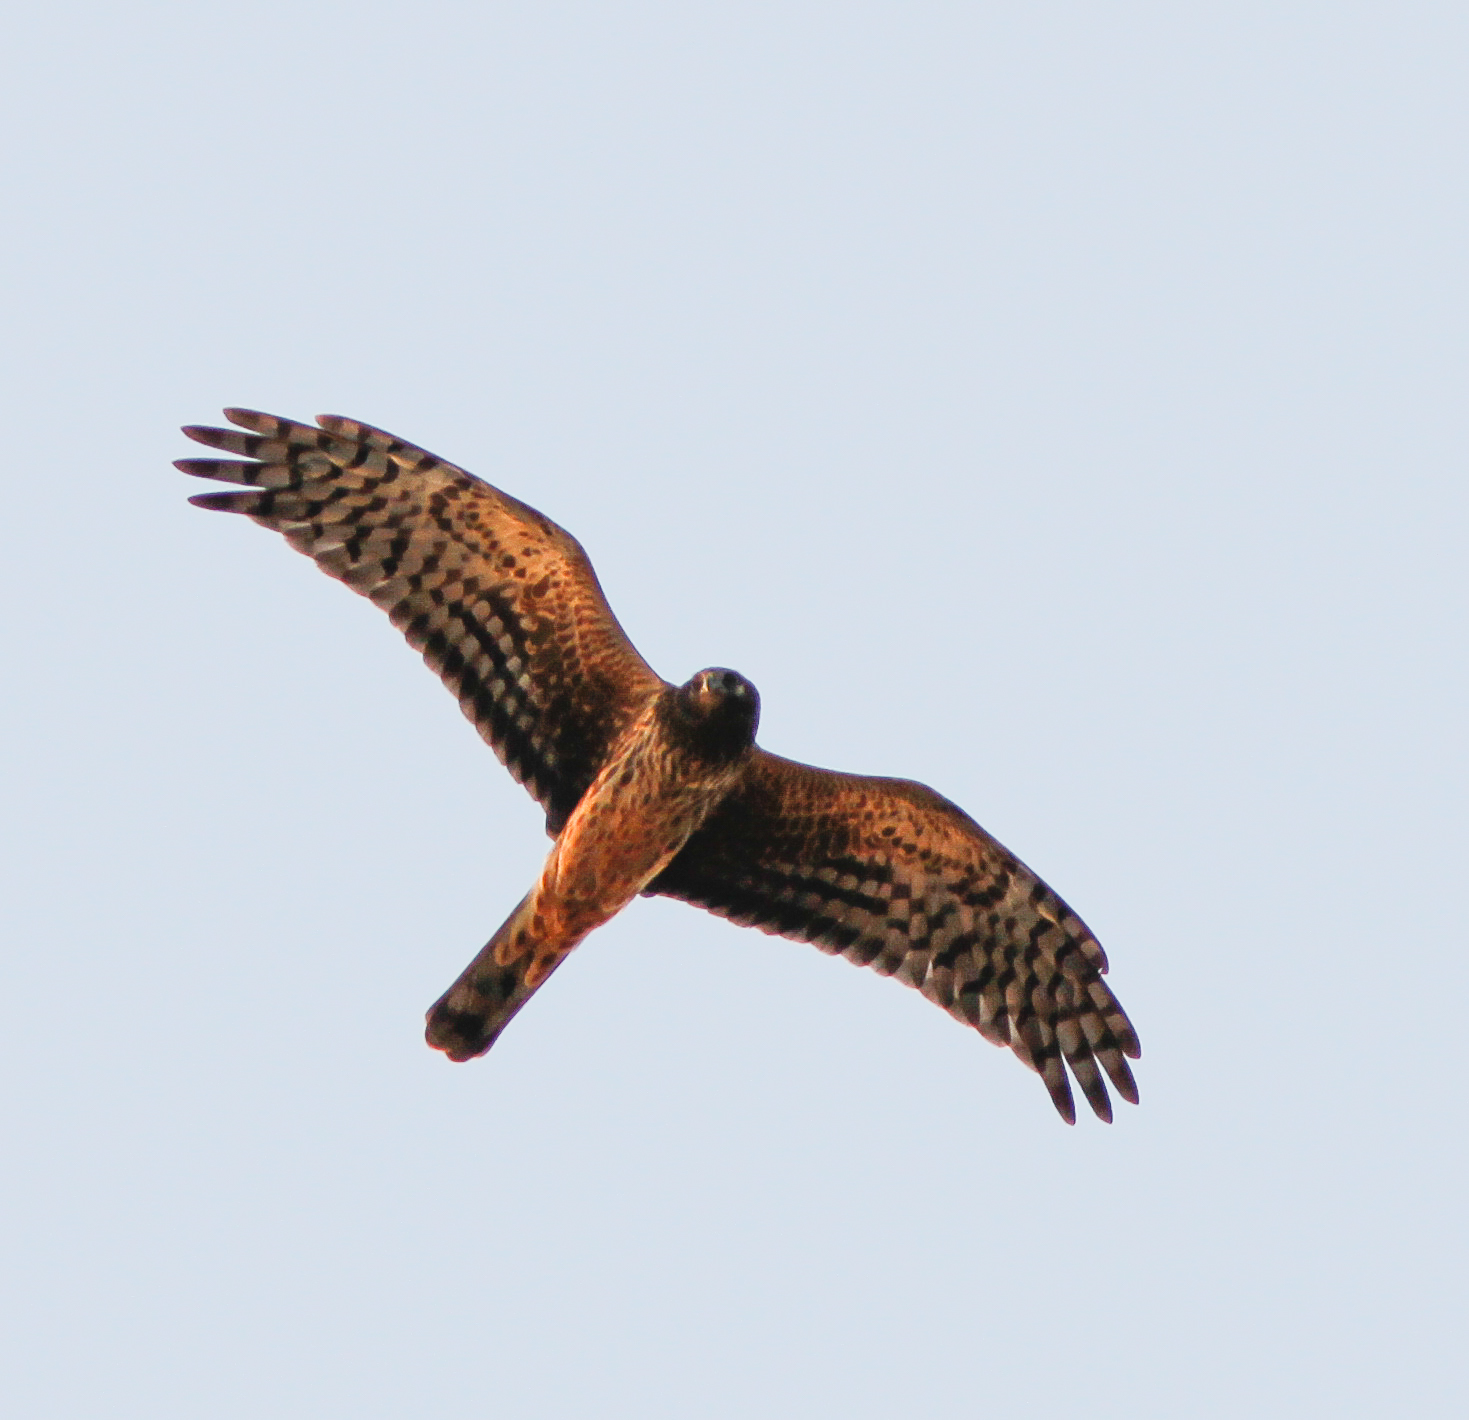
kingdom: Animalia
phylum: Chordata
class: Aves
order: Accipitriformes
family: Accipitridae
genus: Circus
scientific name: Circus cyaneus
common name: Hen harrier
